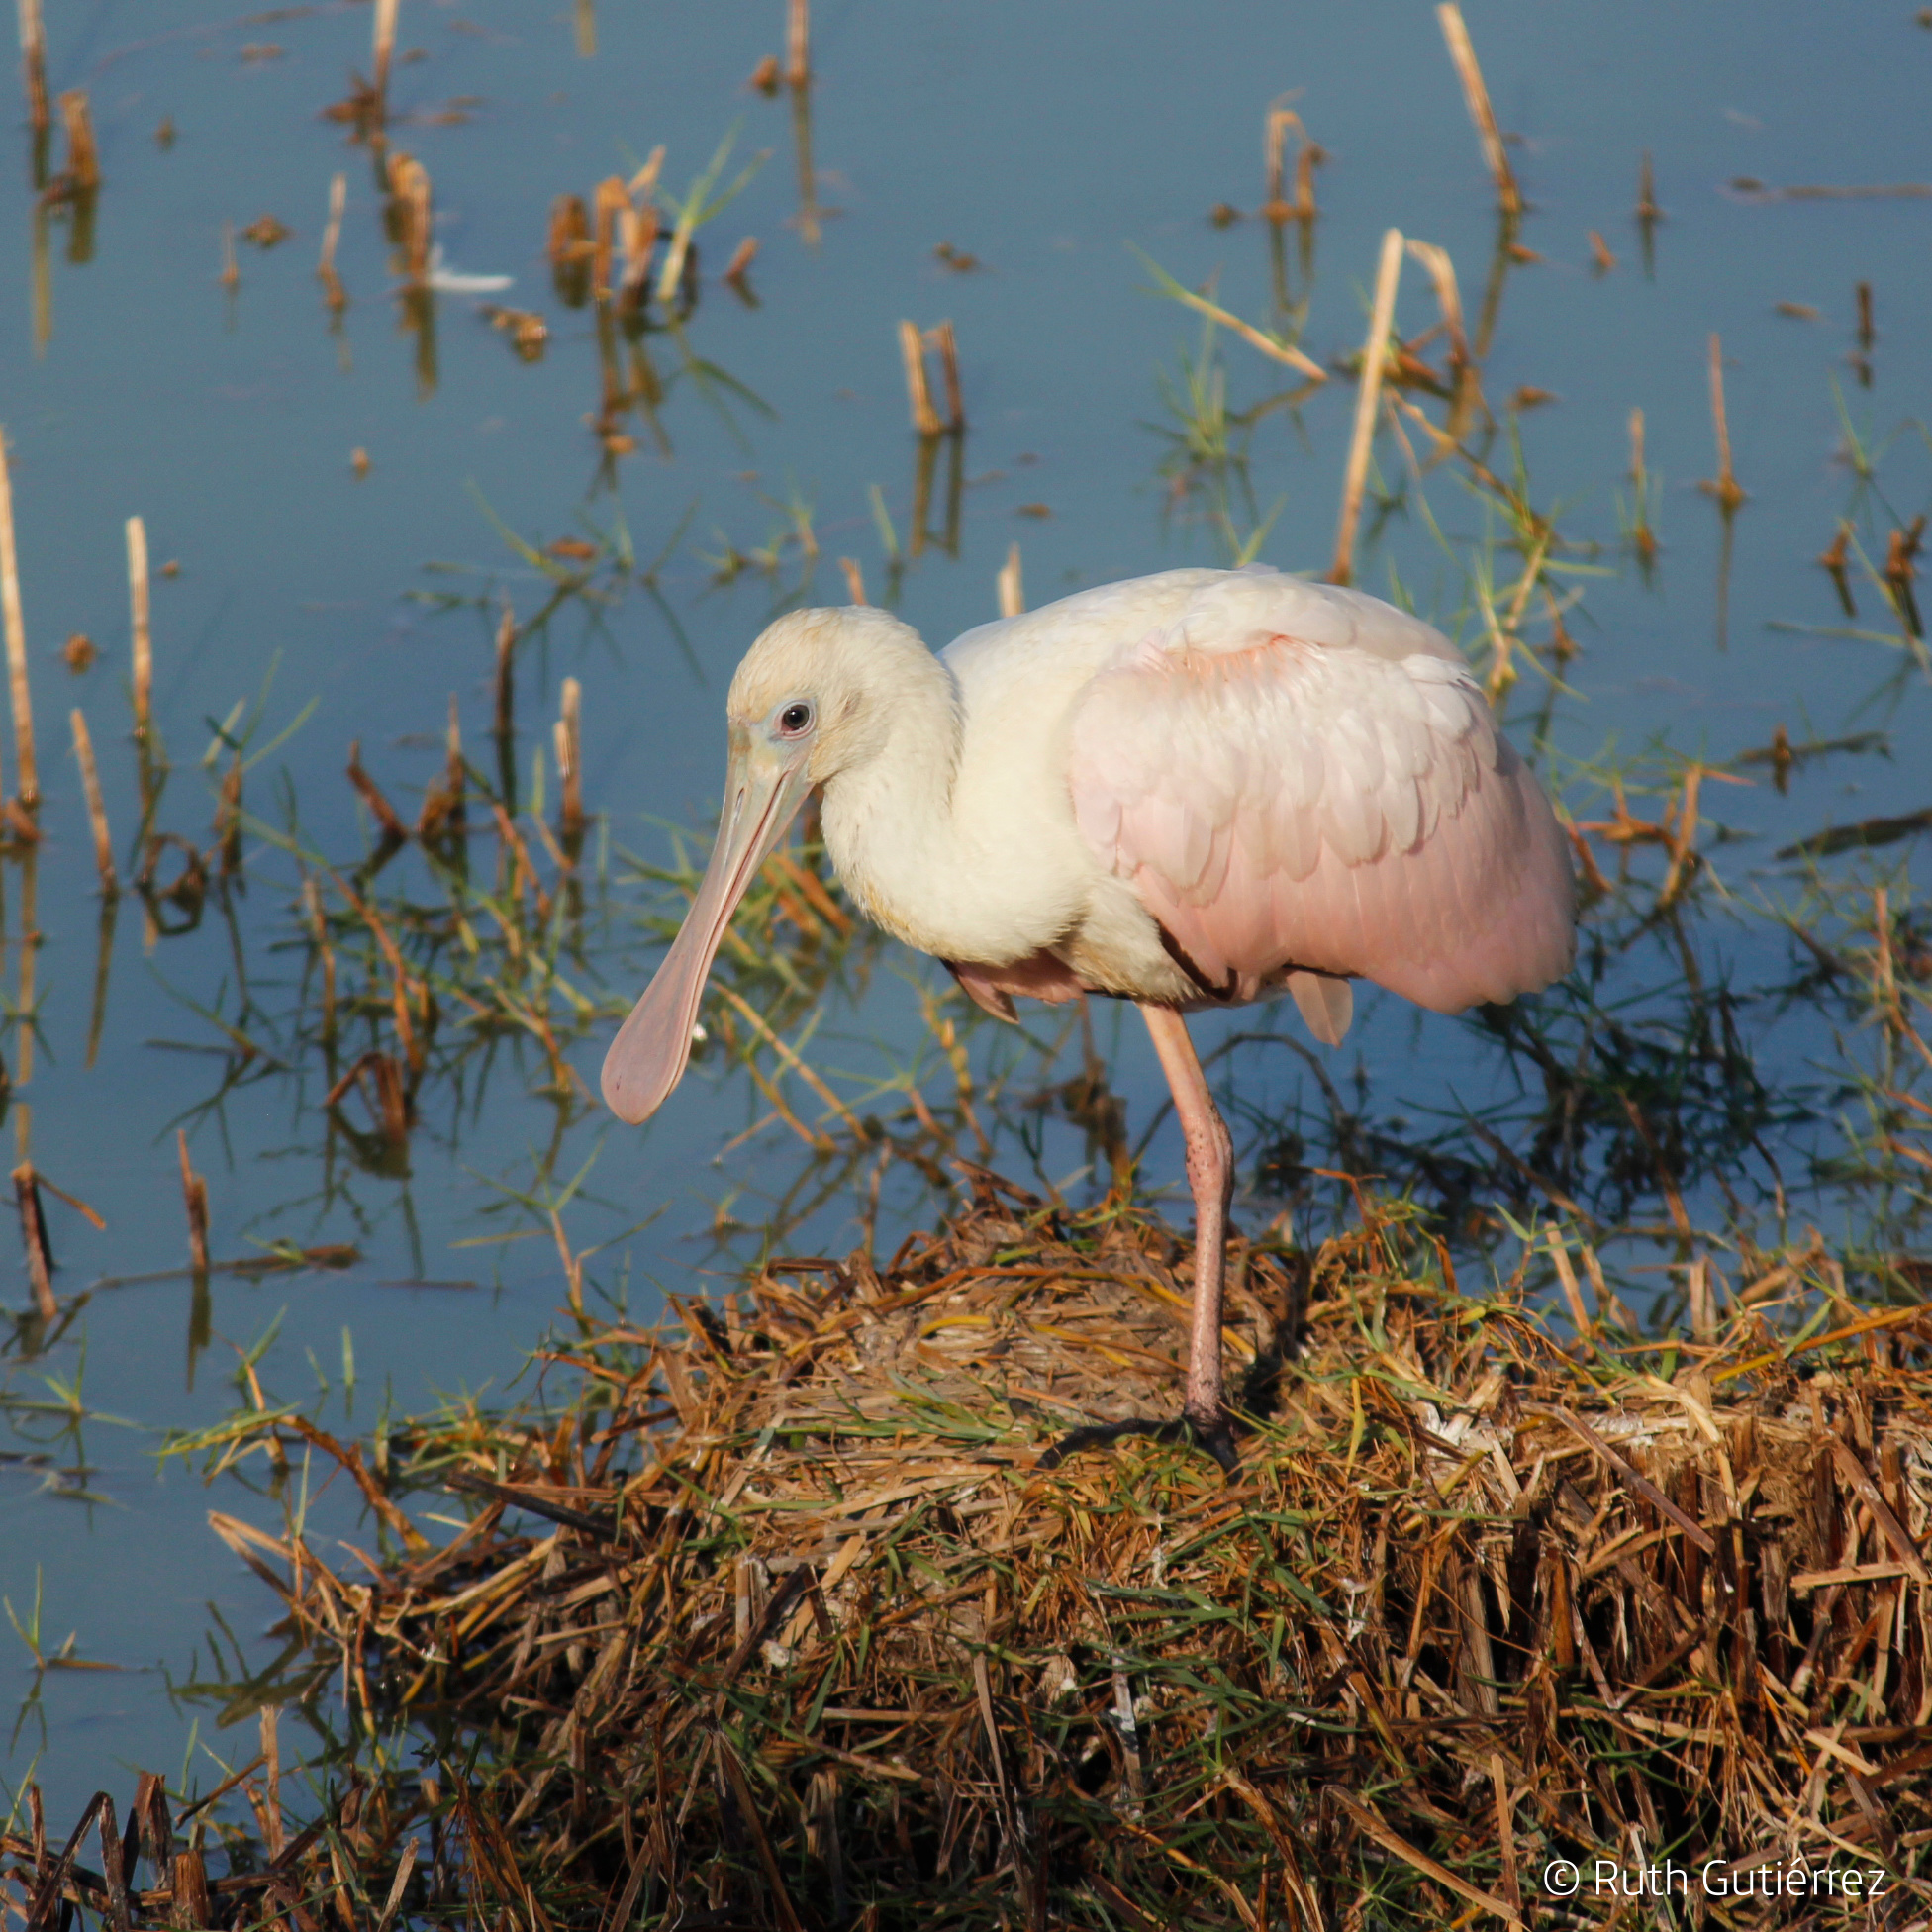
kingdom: Animalia
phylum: Chordata
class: Aves
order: Pelecaniformes
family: Threskiornithidae
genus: Platalea
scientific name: Platalea ajaja
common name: Roseate spoonbill
